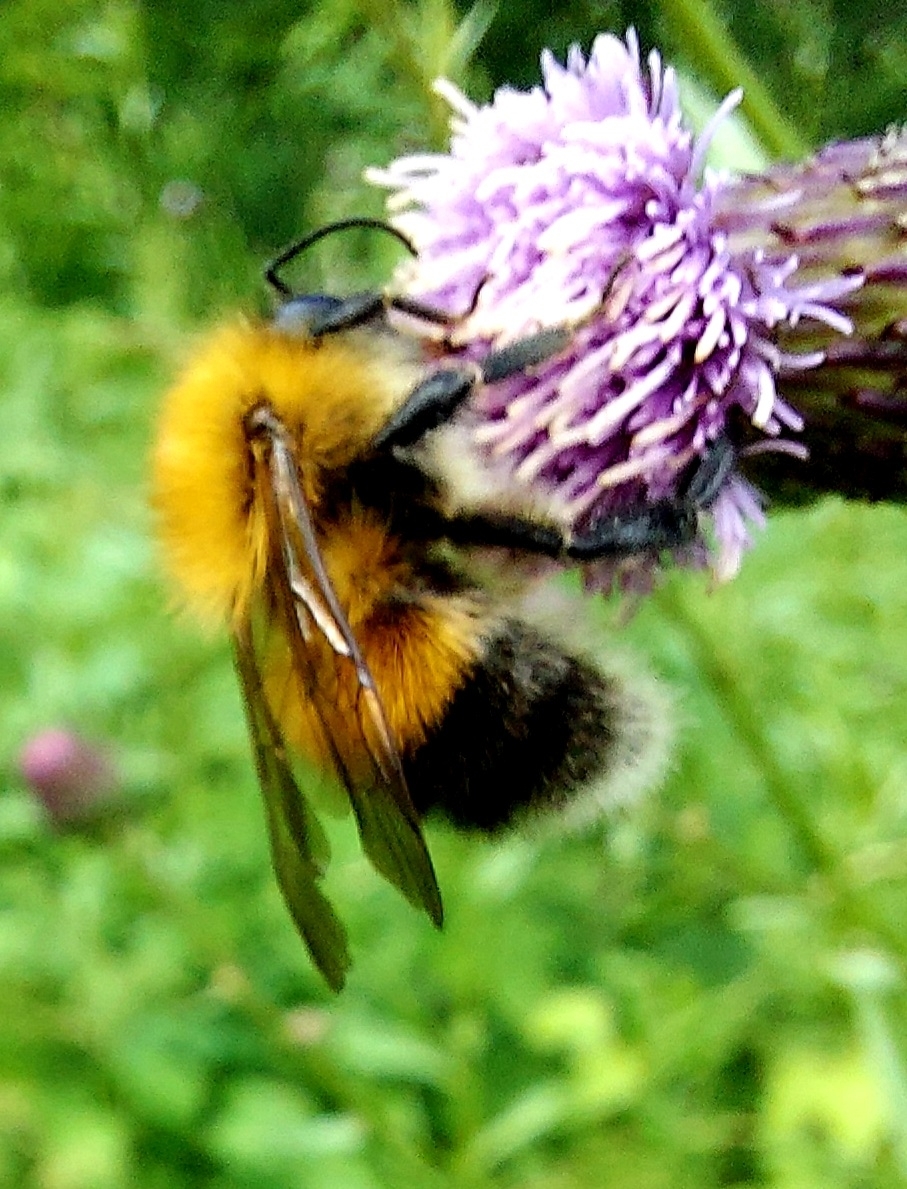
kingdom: Animalia
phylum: Arthropoda
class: Insecta
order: Hymenoptera
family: Apidae
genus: Bombus
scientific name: Bombus hypnorum
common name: New garden bumblebee
